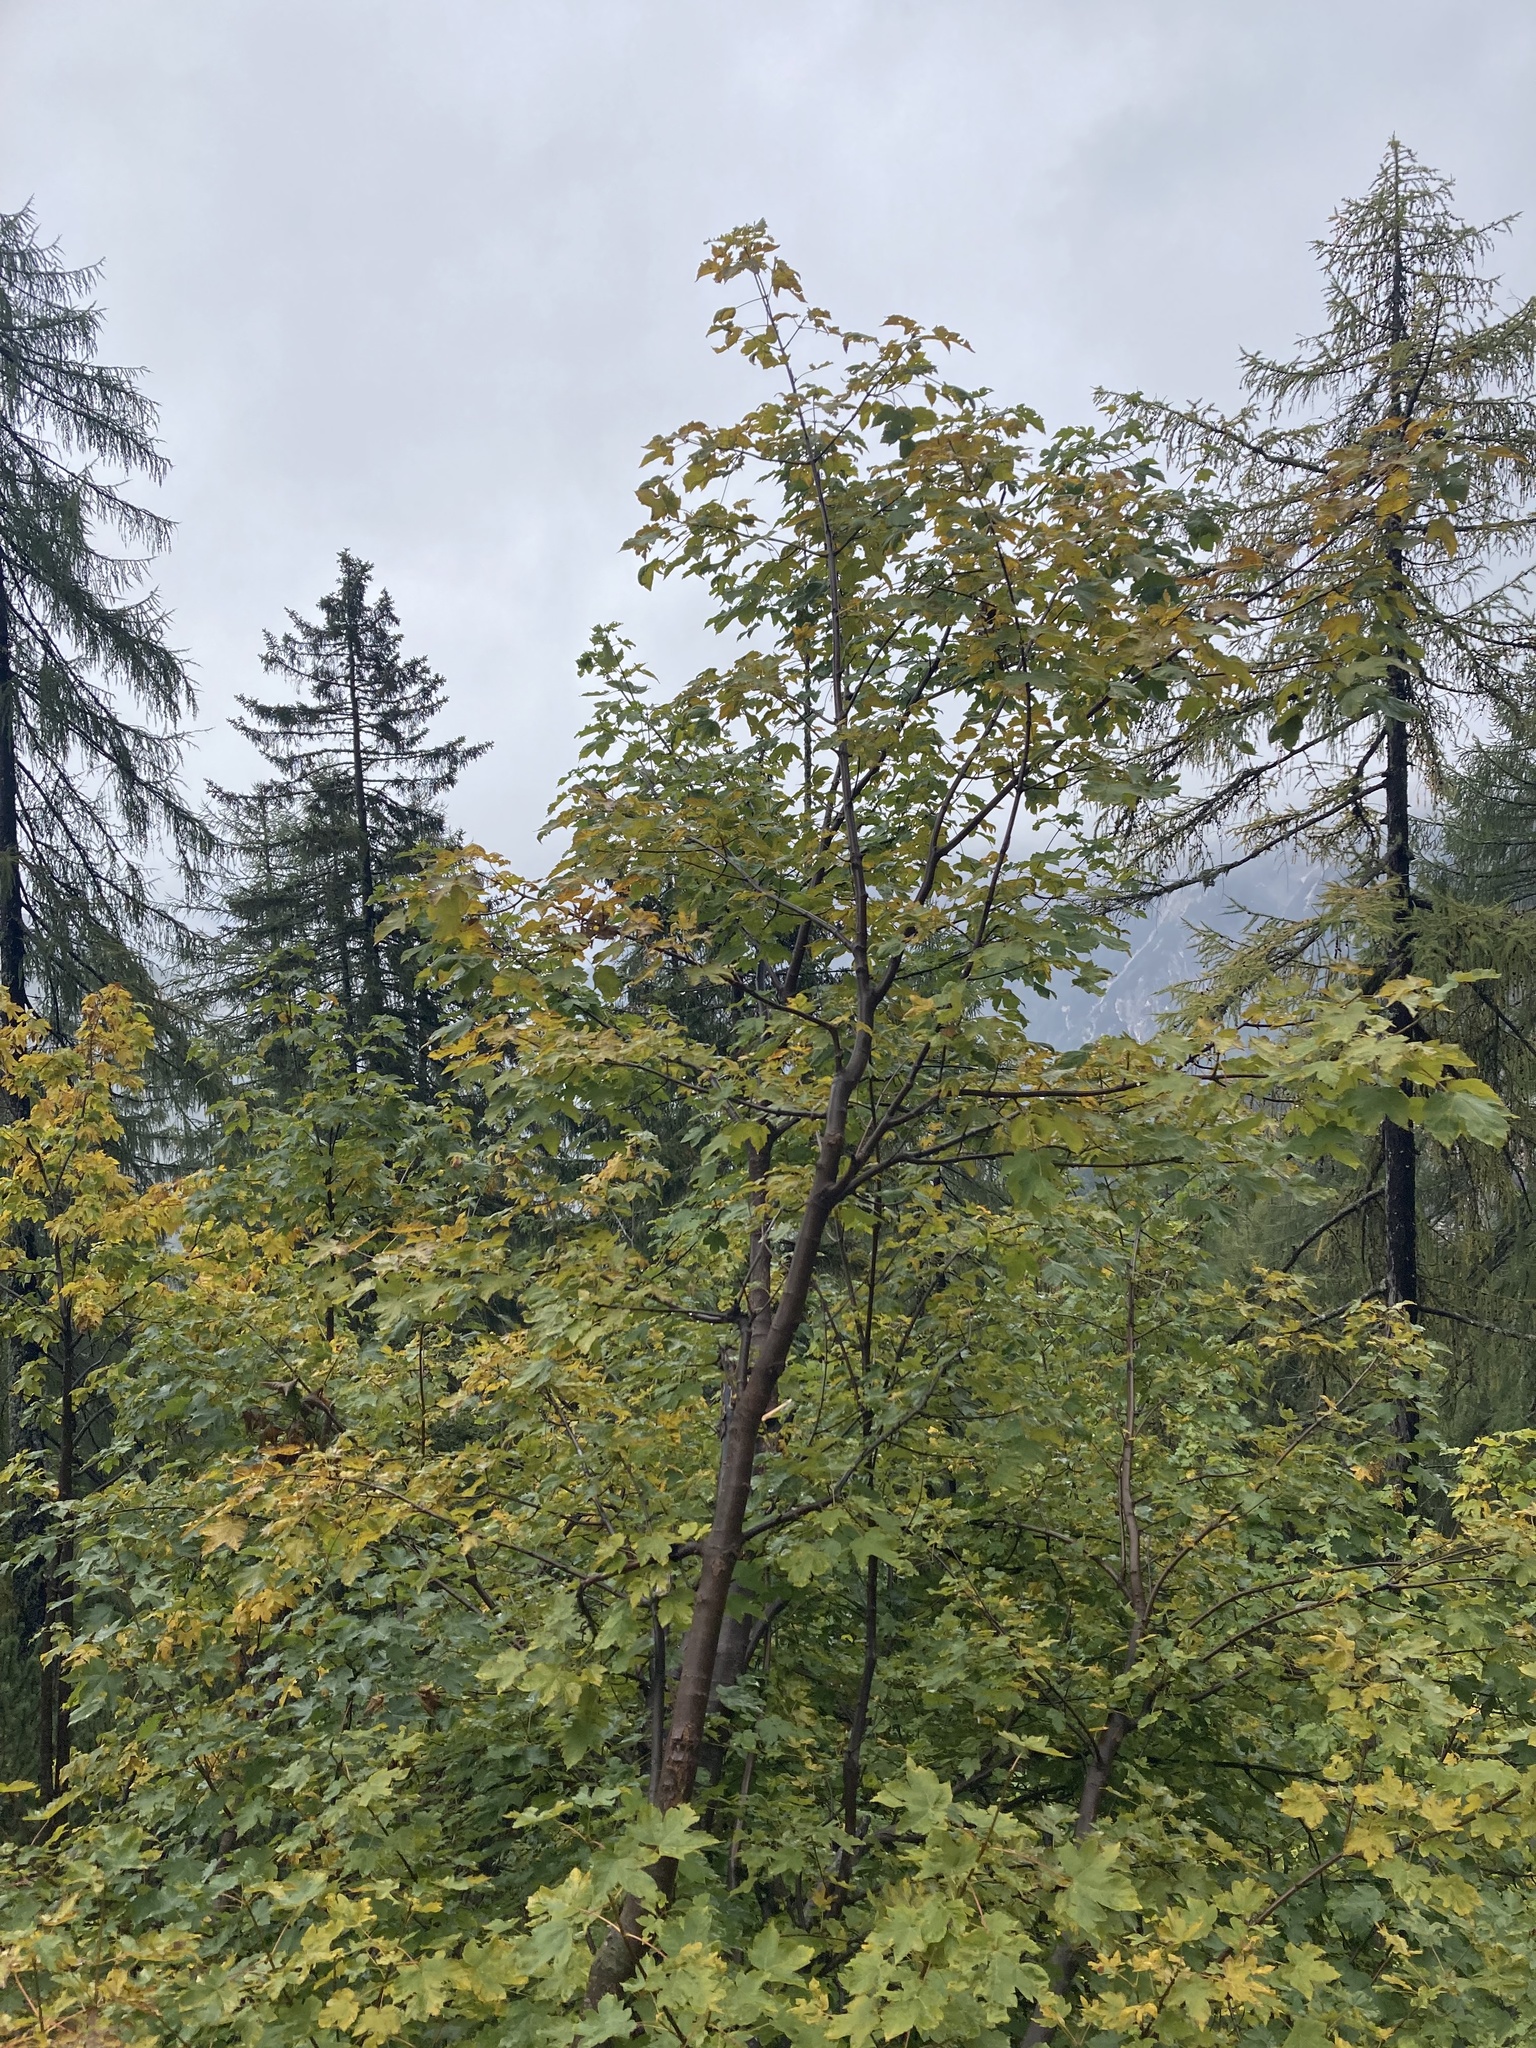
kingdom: Plantae
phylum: Tracheophyta
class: Magnoliopsida
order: Sapindales
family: Sapindaceae
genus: Acer
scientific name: Acer pseudoplatanus
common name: Sycamore
